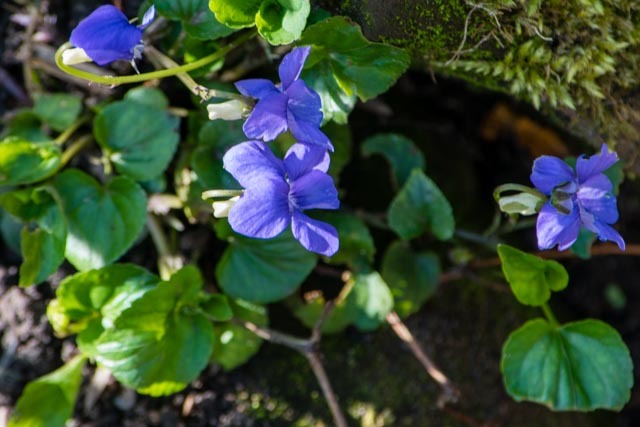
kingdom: Plantae
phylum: Tracheophyta
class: Magnoliopsida
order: Malpighiales
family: Violaceae
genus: Viola
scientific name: Viola riviniana
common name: Common dog-violet
